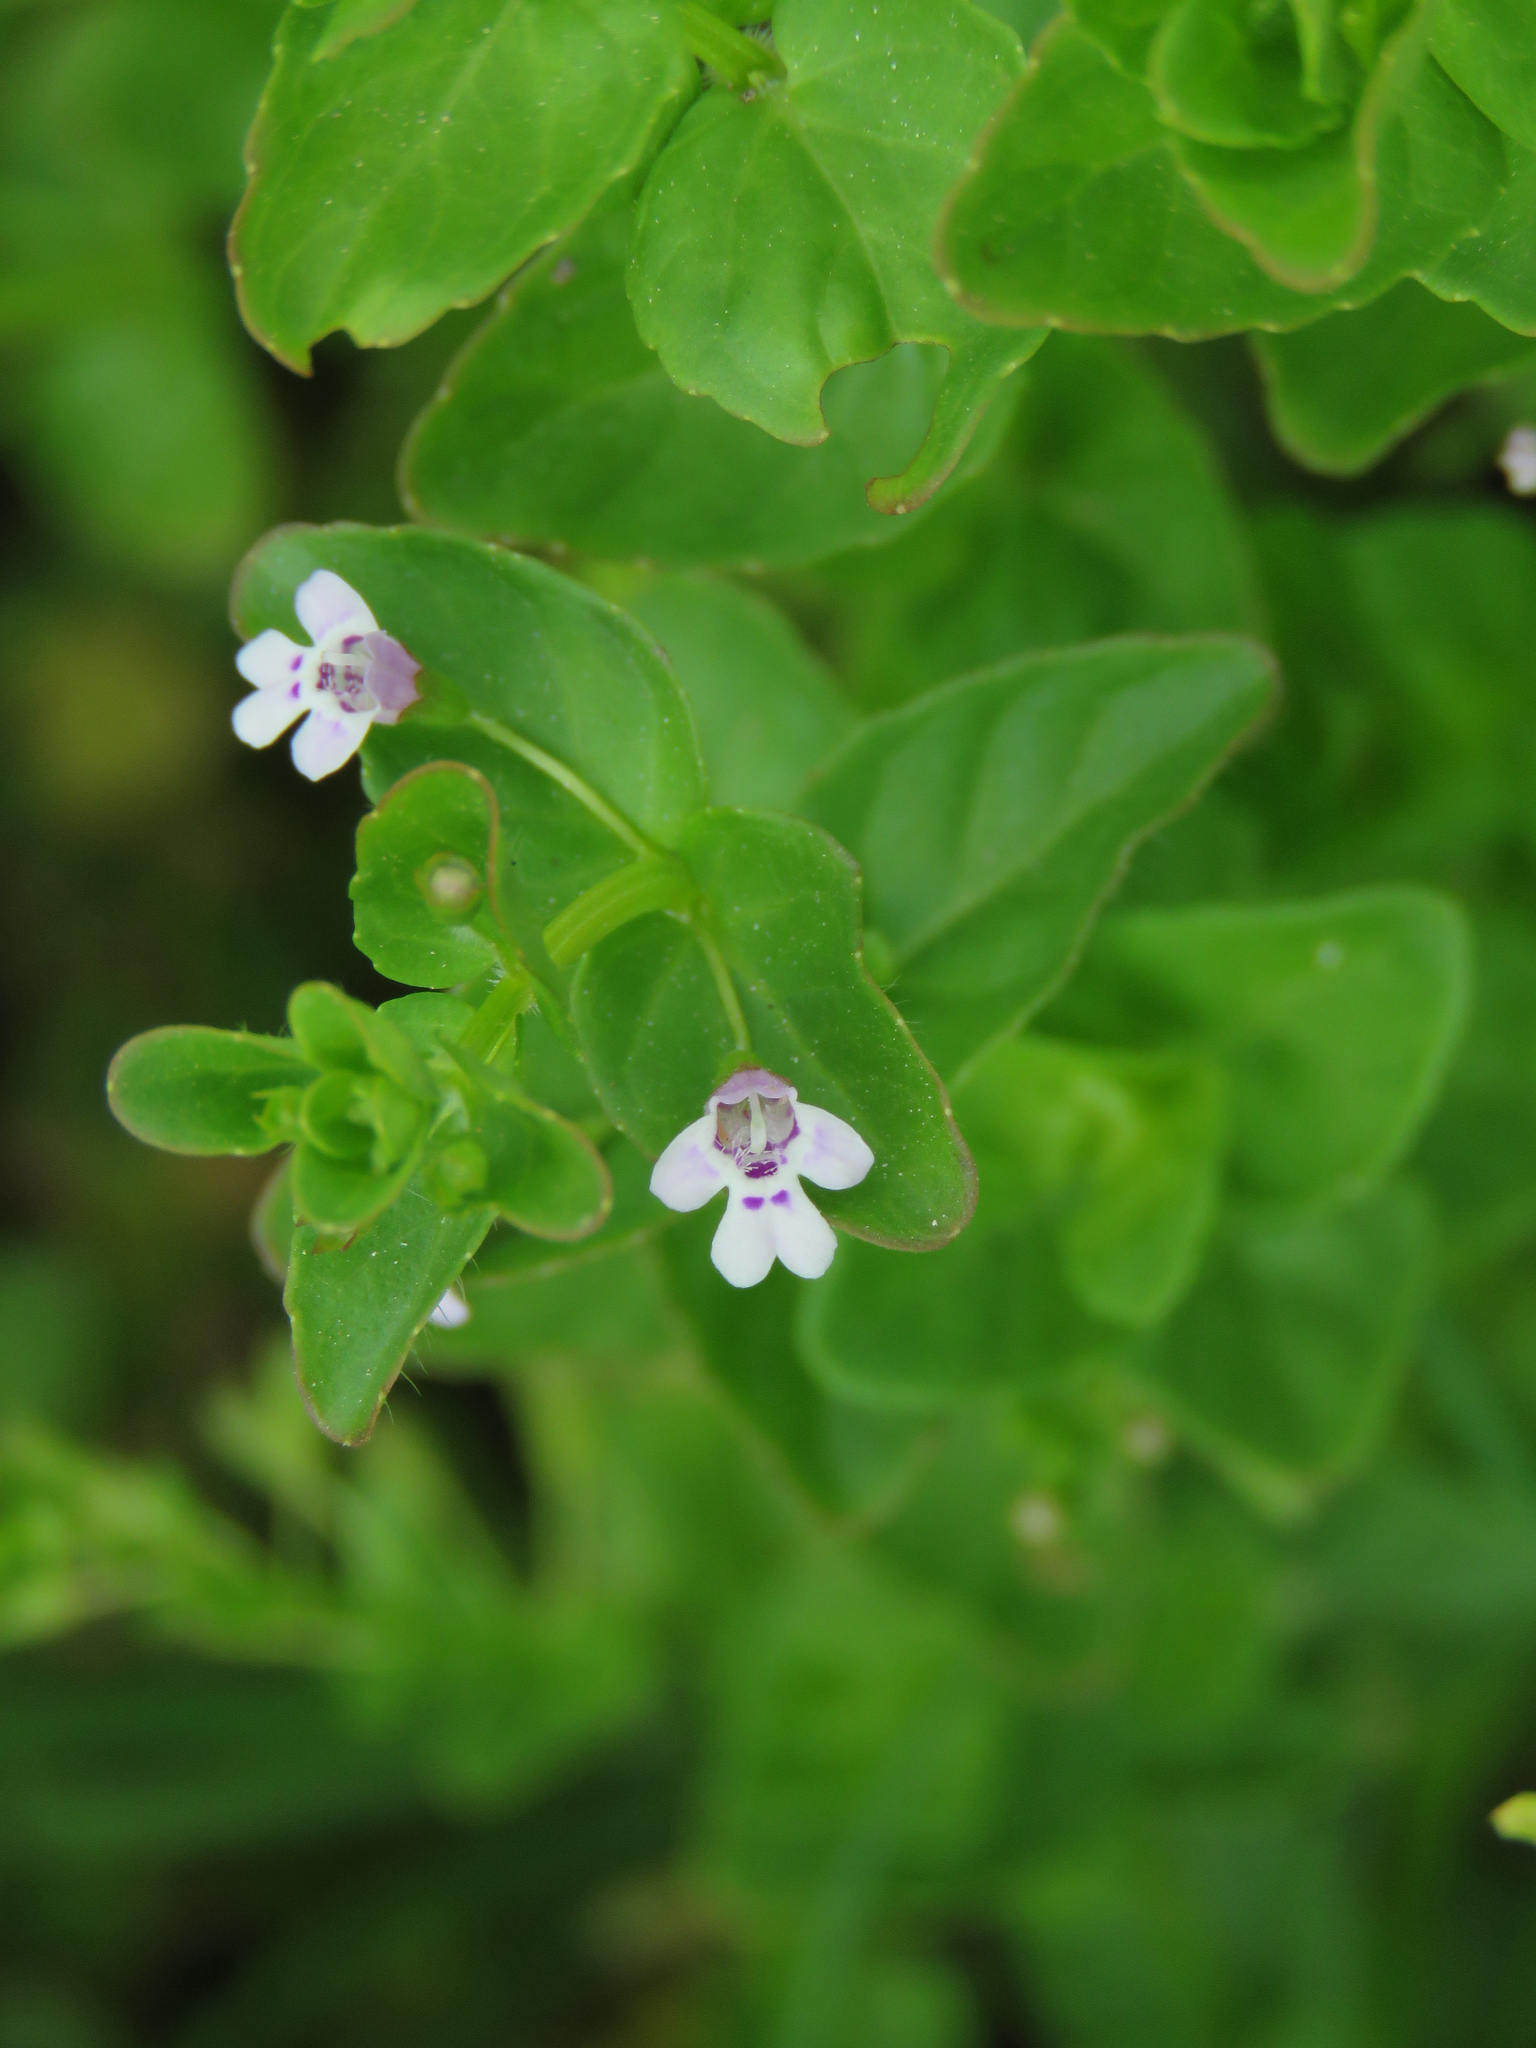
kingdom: Plantae
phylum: Tracheophyta
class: Magnoliopsida
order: Lamiales
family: Lamiaceae
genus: Clinopodium
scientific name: Clinopodium brownei
